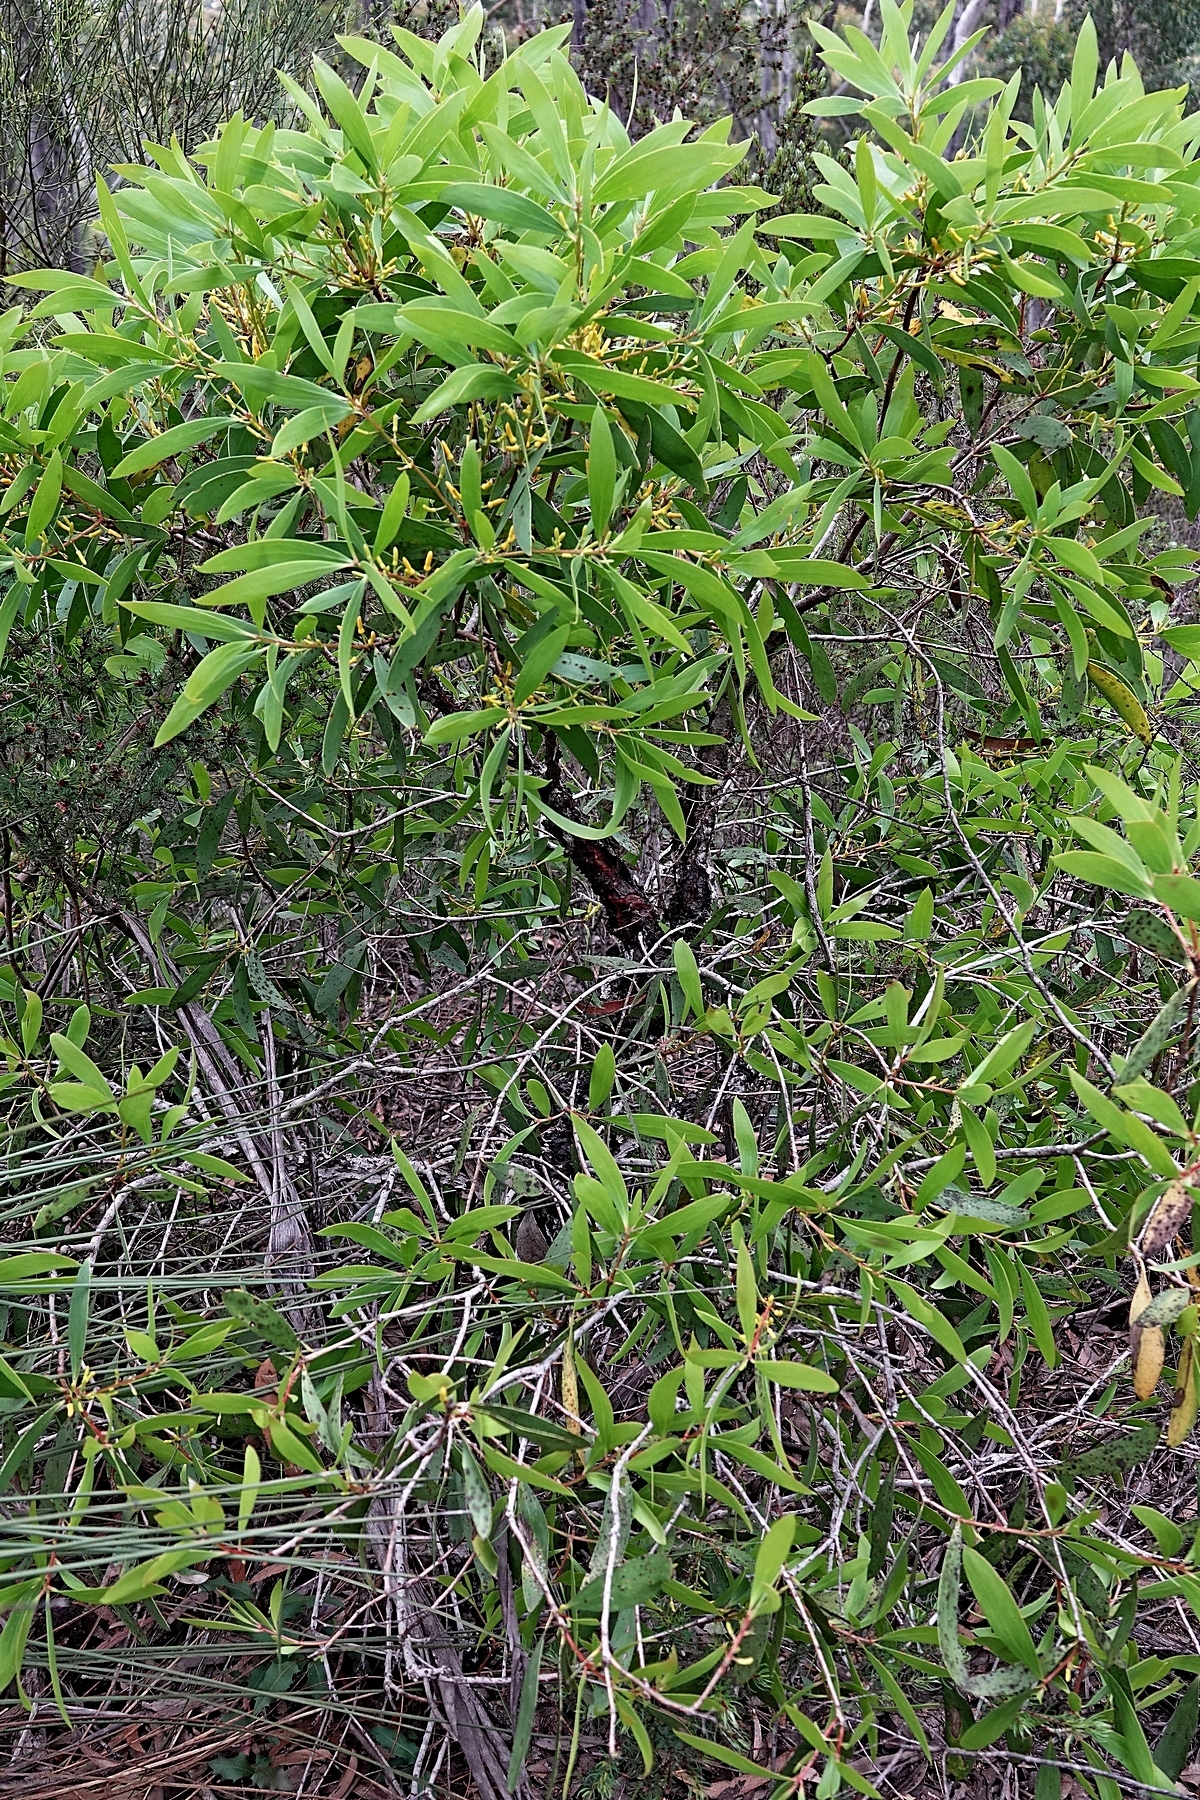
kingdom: Plantae
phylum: Tracheophyta
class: Magnoliopsida
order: Proteales
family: Proteaceae
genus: Persoonia
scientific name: Persoonia levis
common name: Smooth geebung
